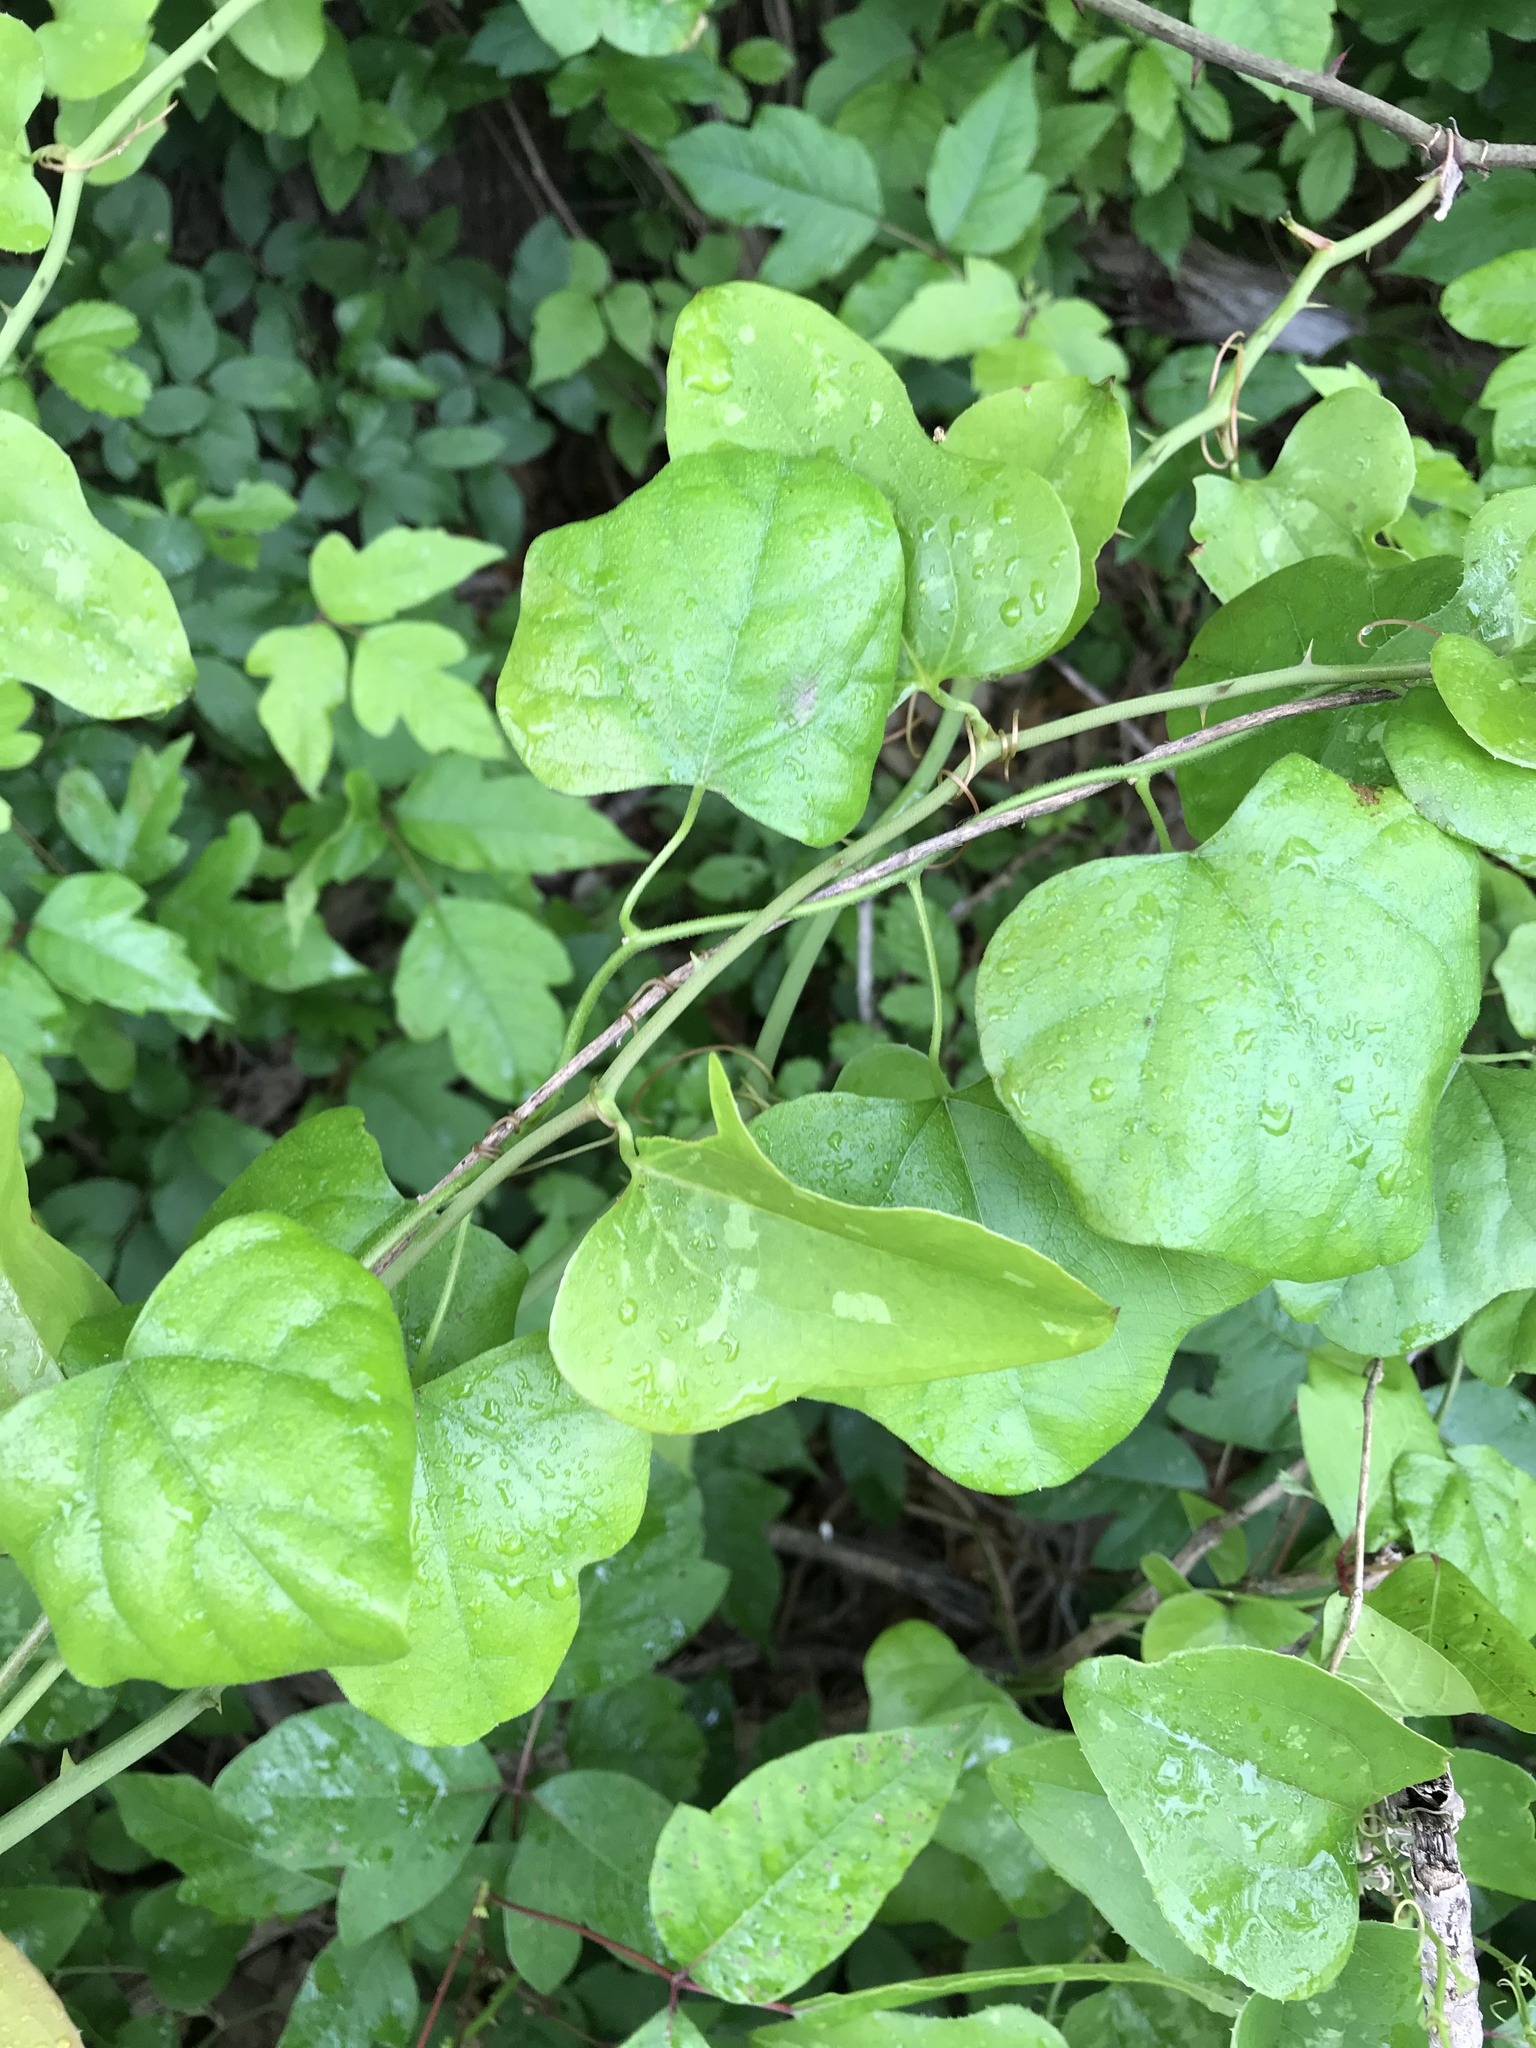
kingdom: Plantae
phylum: Tracheophyta
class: Magnoliopsida
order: Ranunculales
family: Menispermaceae
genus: Cocculus
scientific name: Cocculus carolinus
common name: Carolina moonseed
